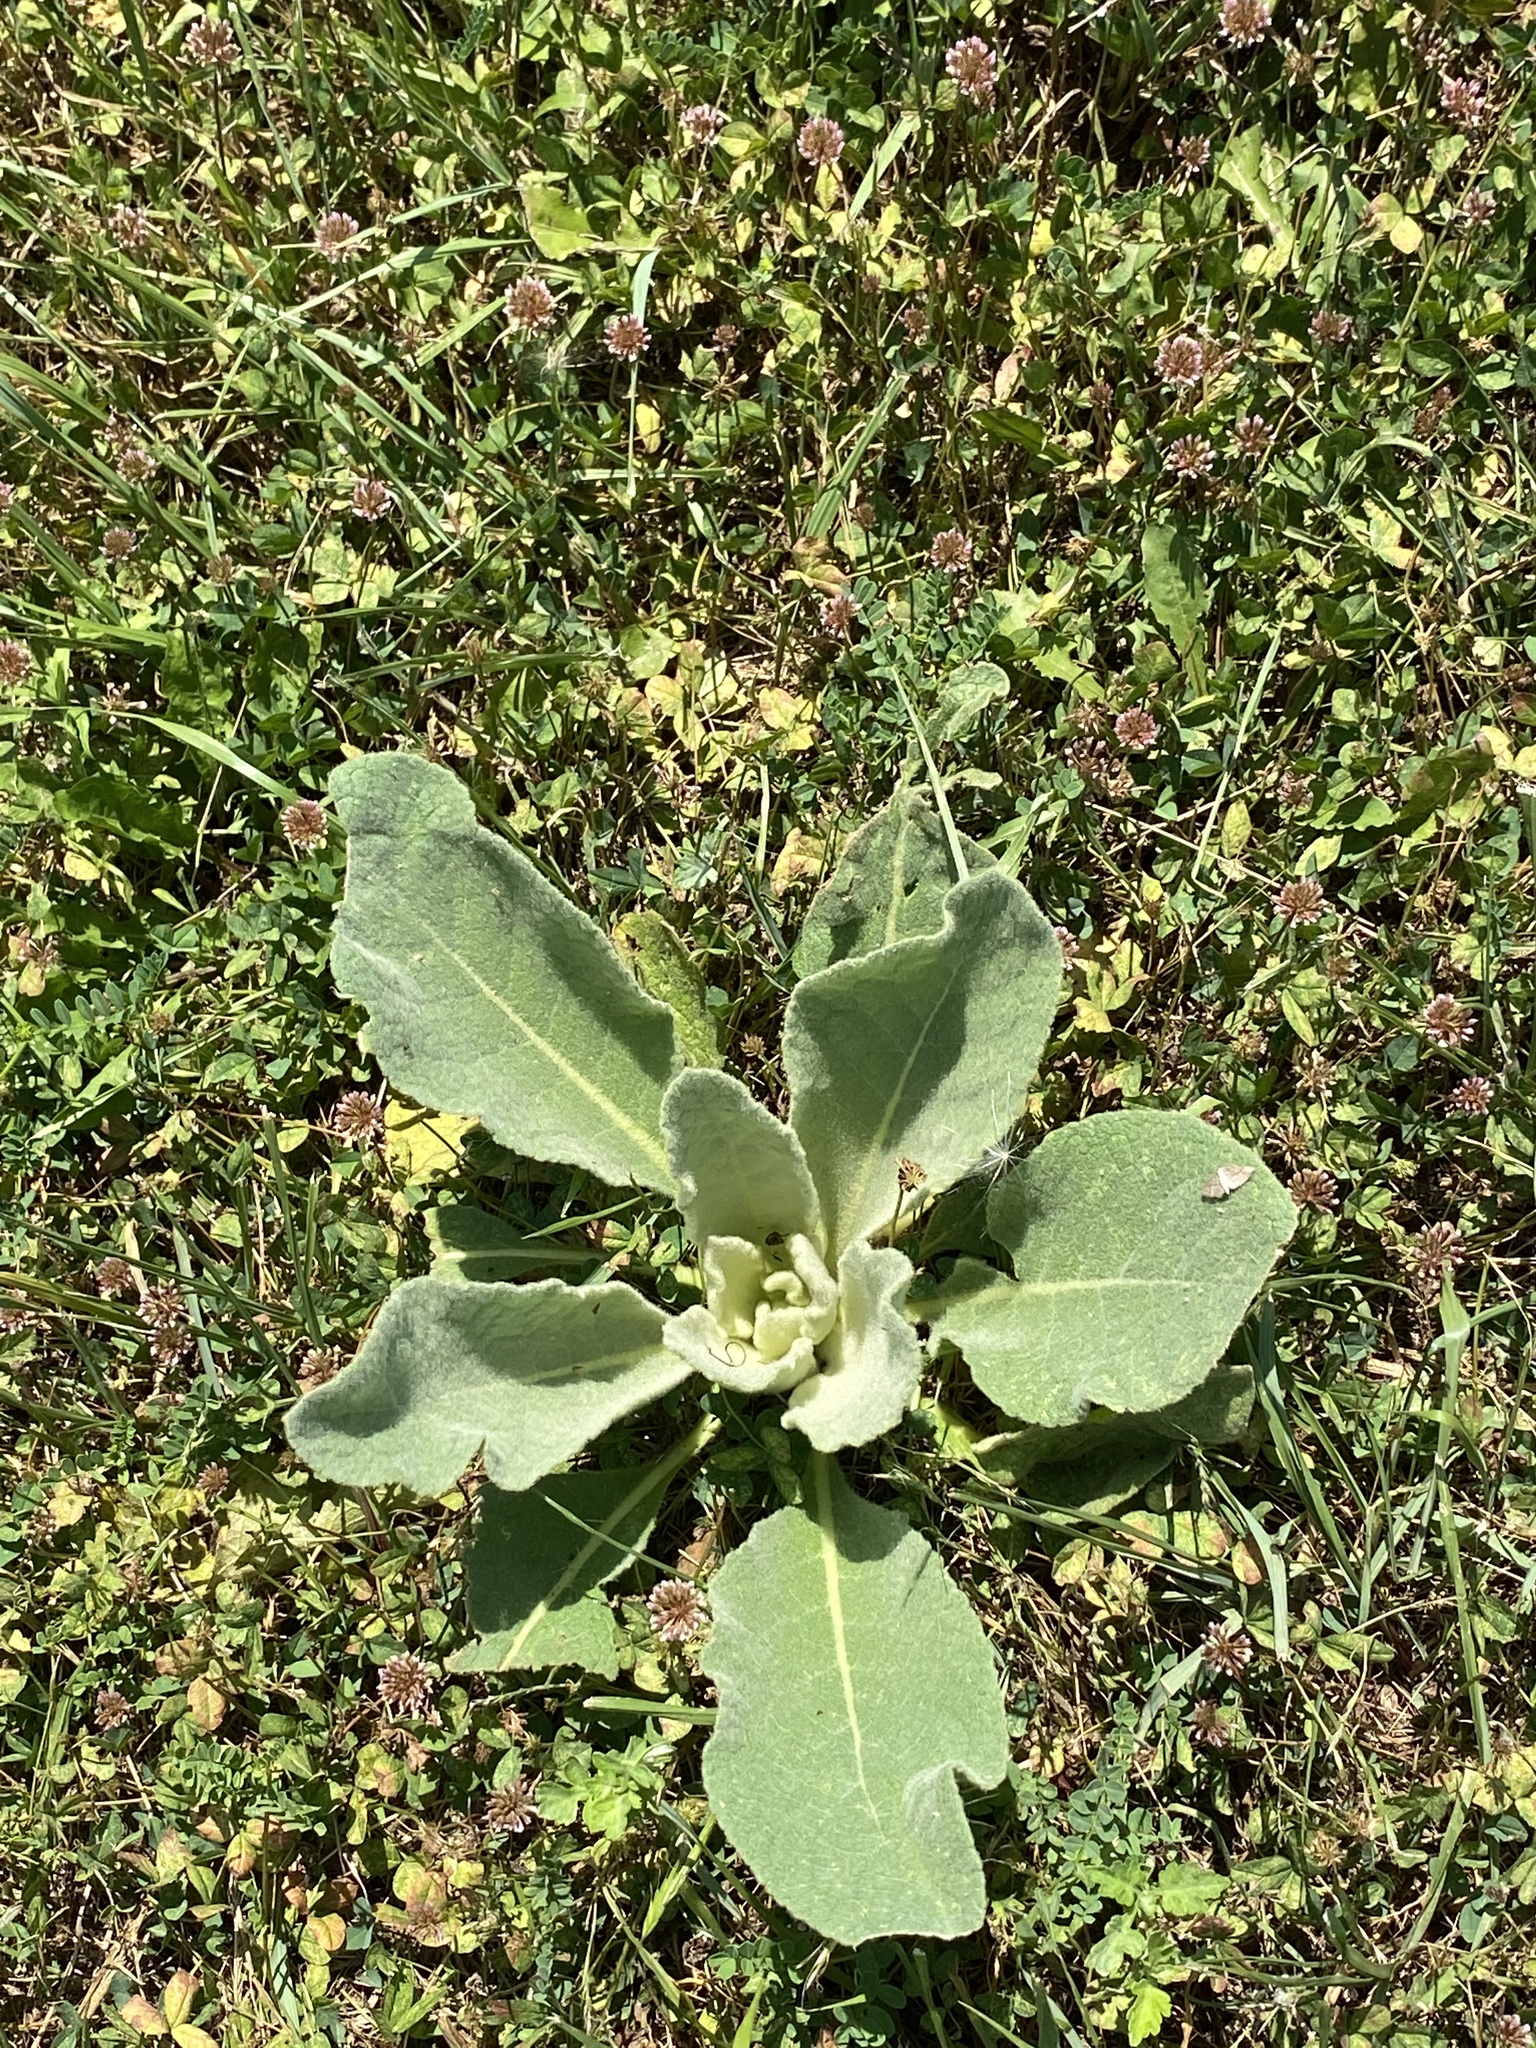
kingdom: Plantae
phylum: Tracheophyta
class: Magnoliopsida
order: Lamiales
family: Scrophulariaceae
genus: Verbascum
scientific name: Verbascum thapsus
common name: Common mullein
